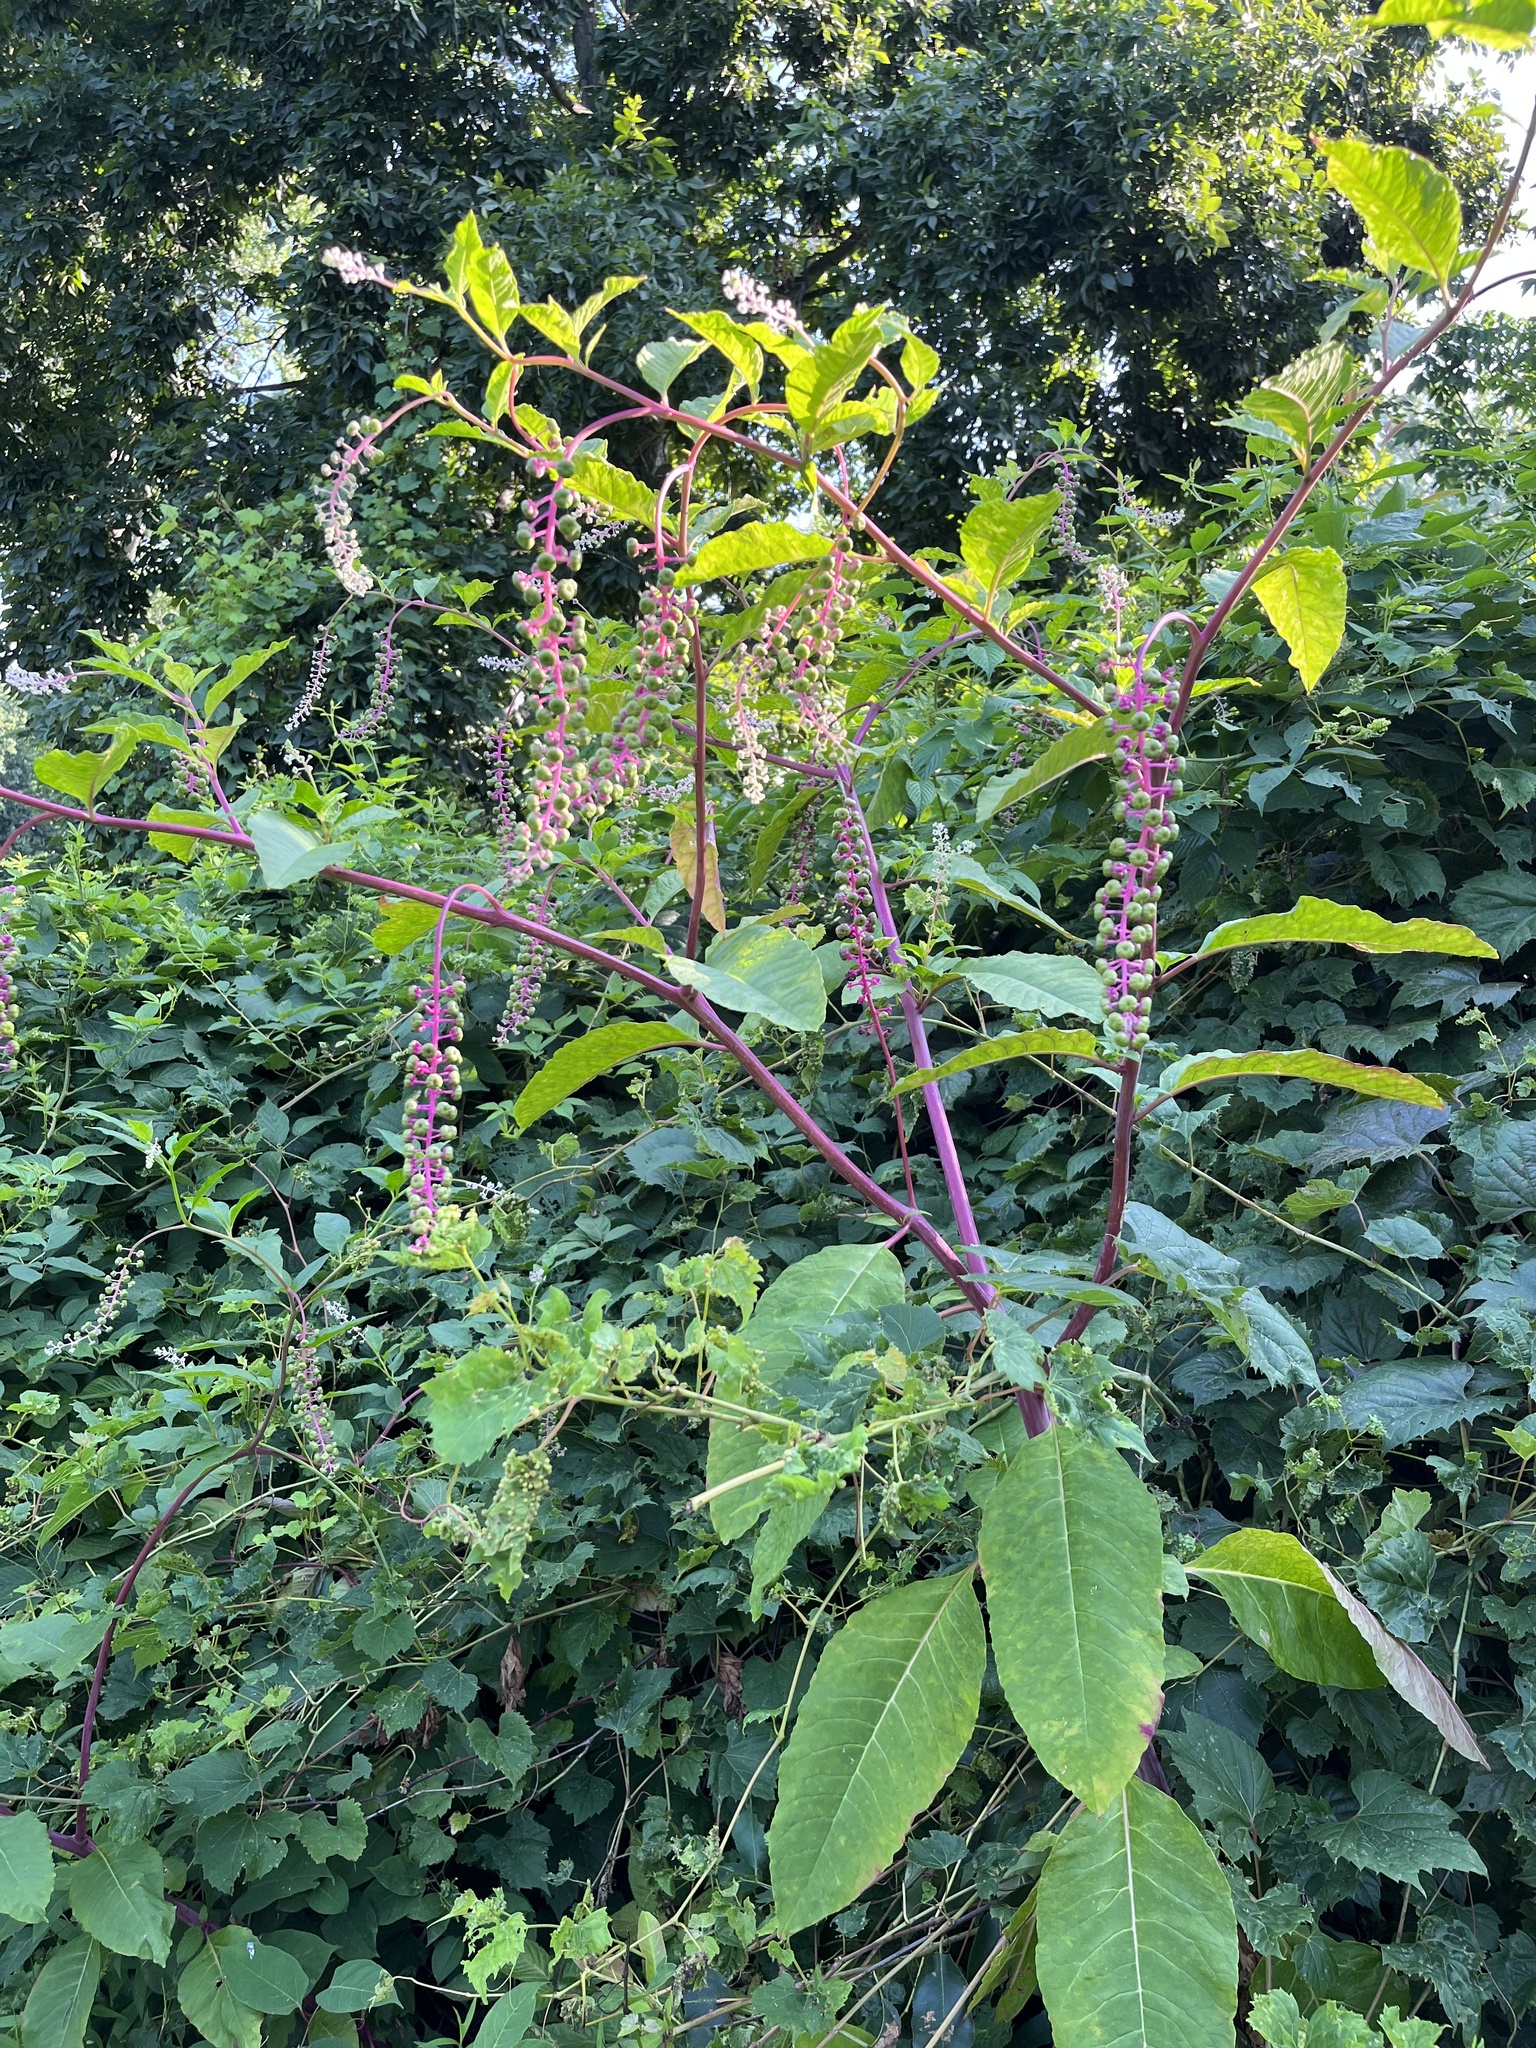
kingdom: Plantae
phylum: Tracheophyta
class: Magnoliopsida
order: Caryophyllales
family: Phytolaccaceae
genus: Phytolacca
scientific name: Phytolacca americana
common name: American pokeweed
